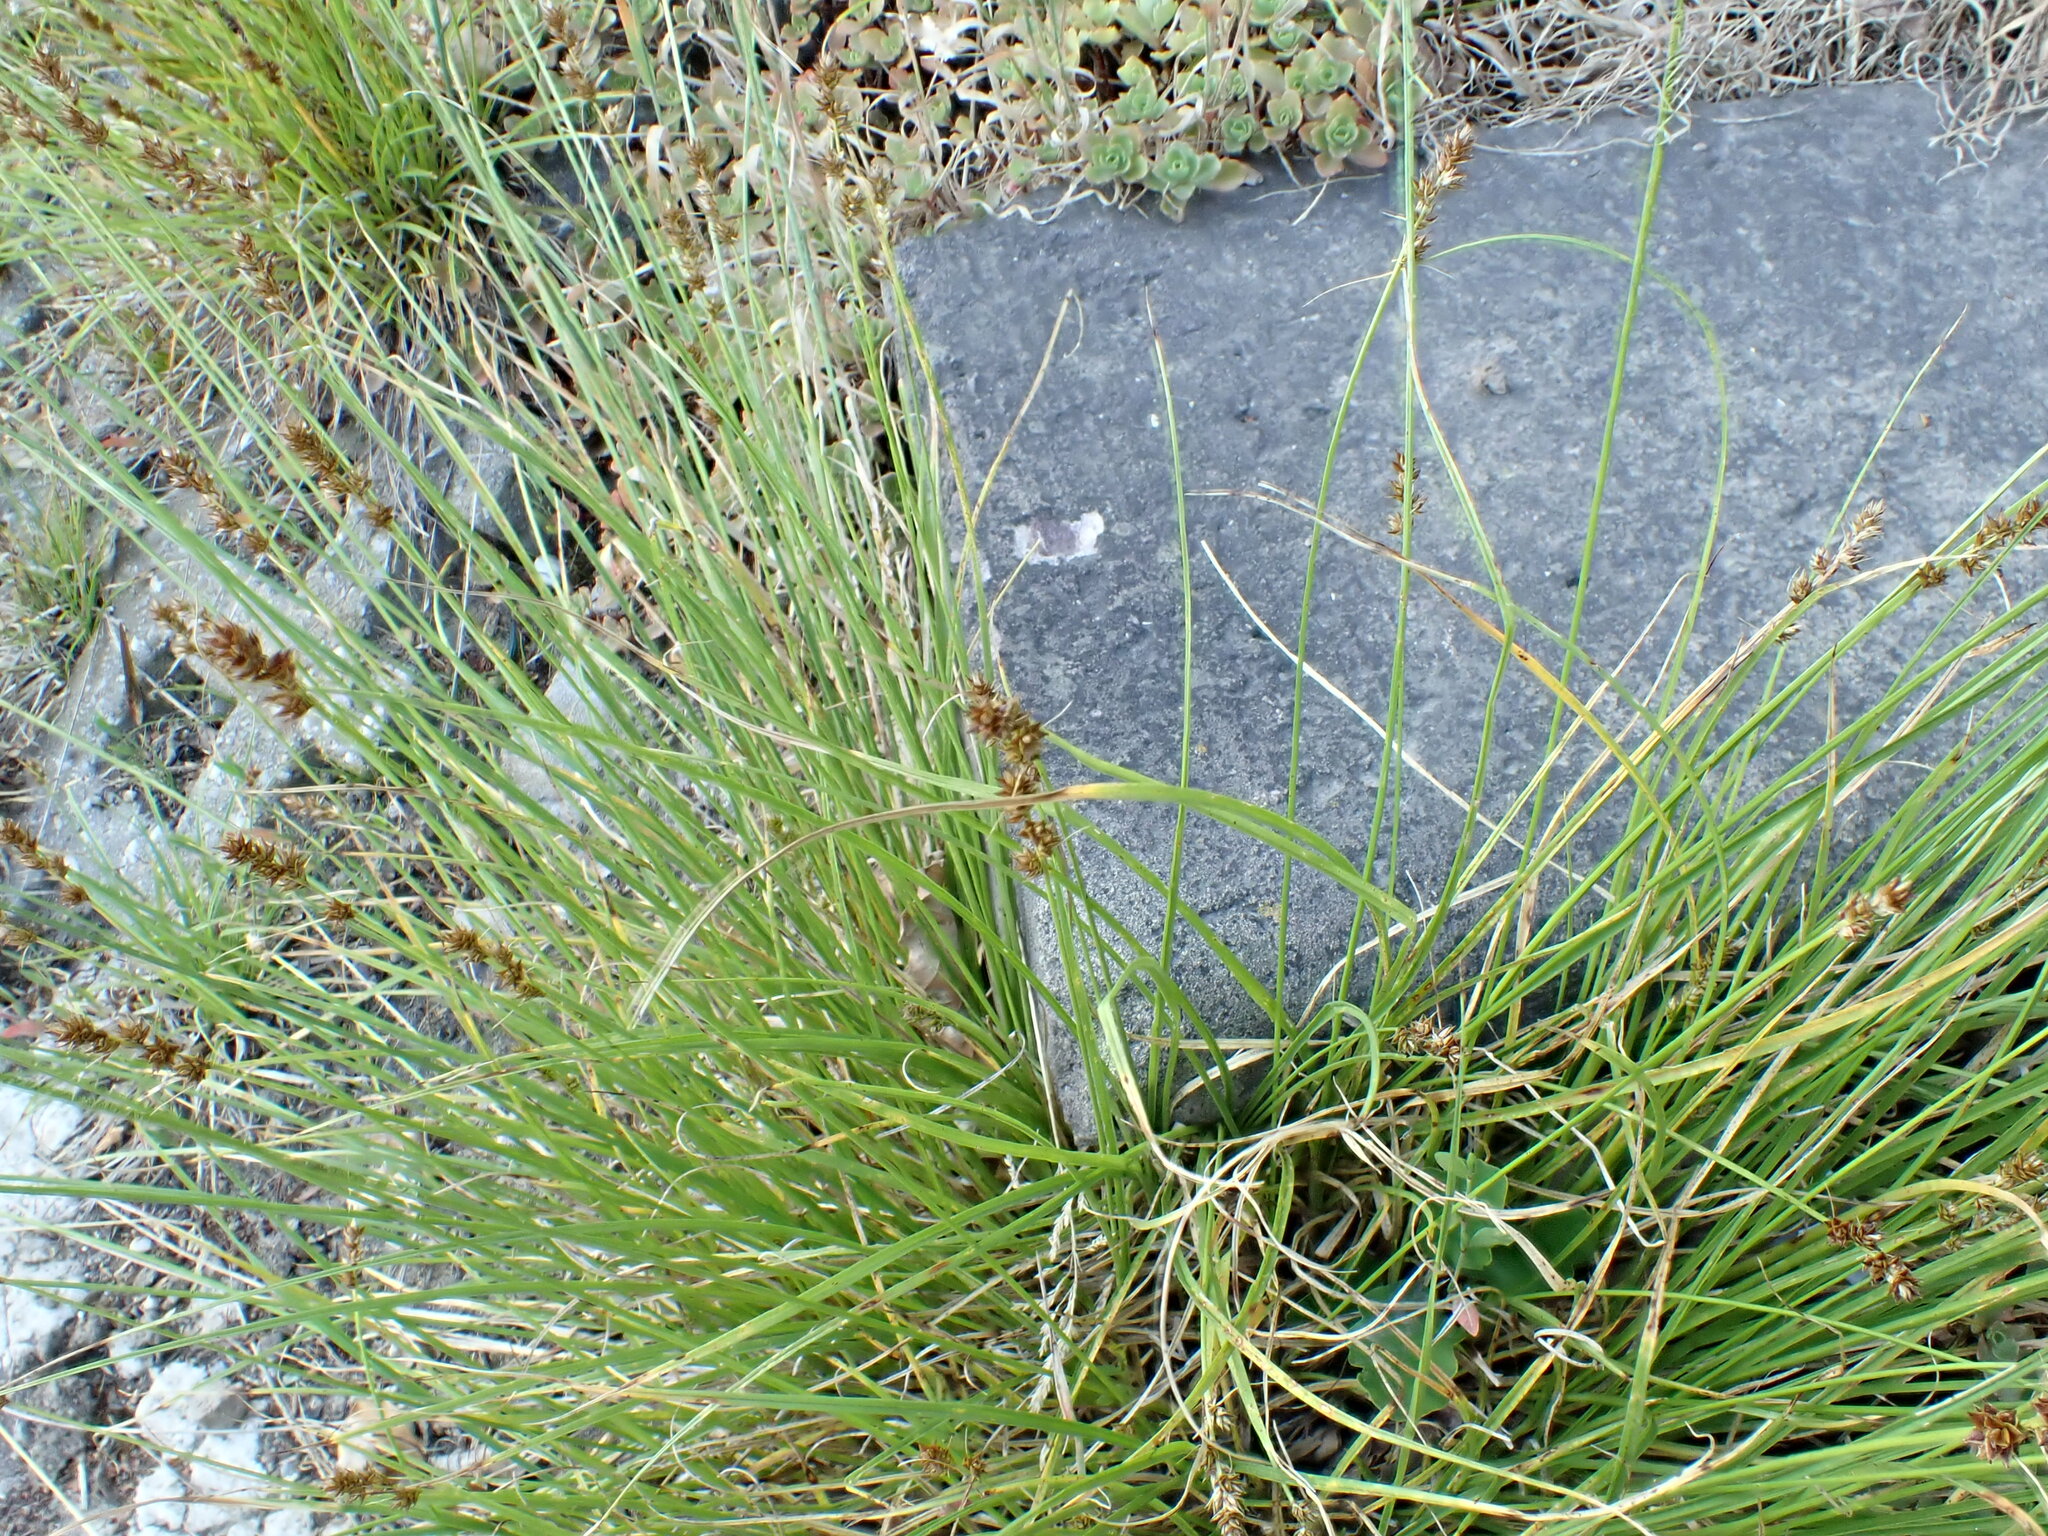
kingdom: Plantae
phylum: Tracheophyta
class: Liliopsida
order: Poales
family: Cyperaceae
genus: Carex
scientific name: Carex muricata
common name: Rough sedge
